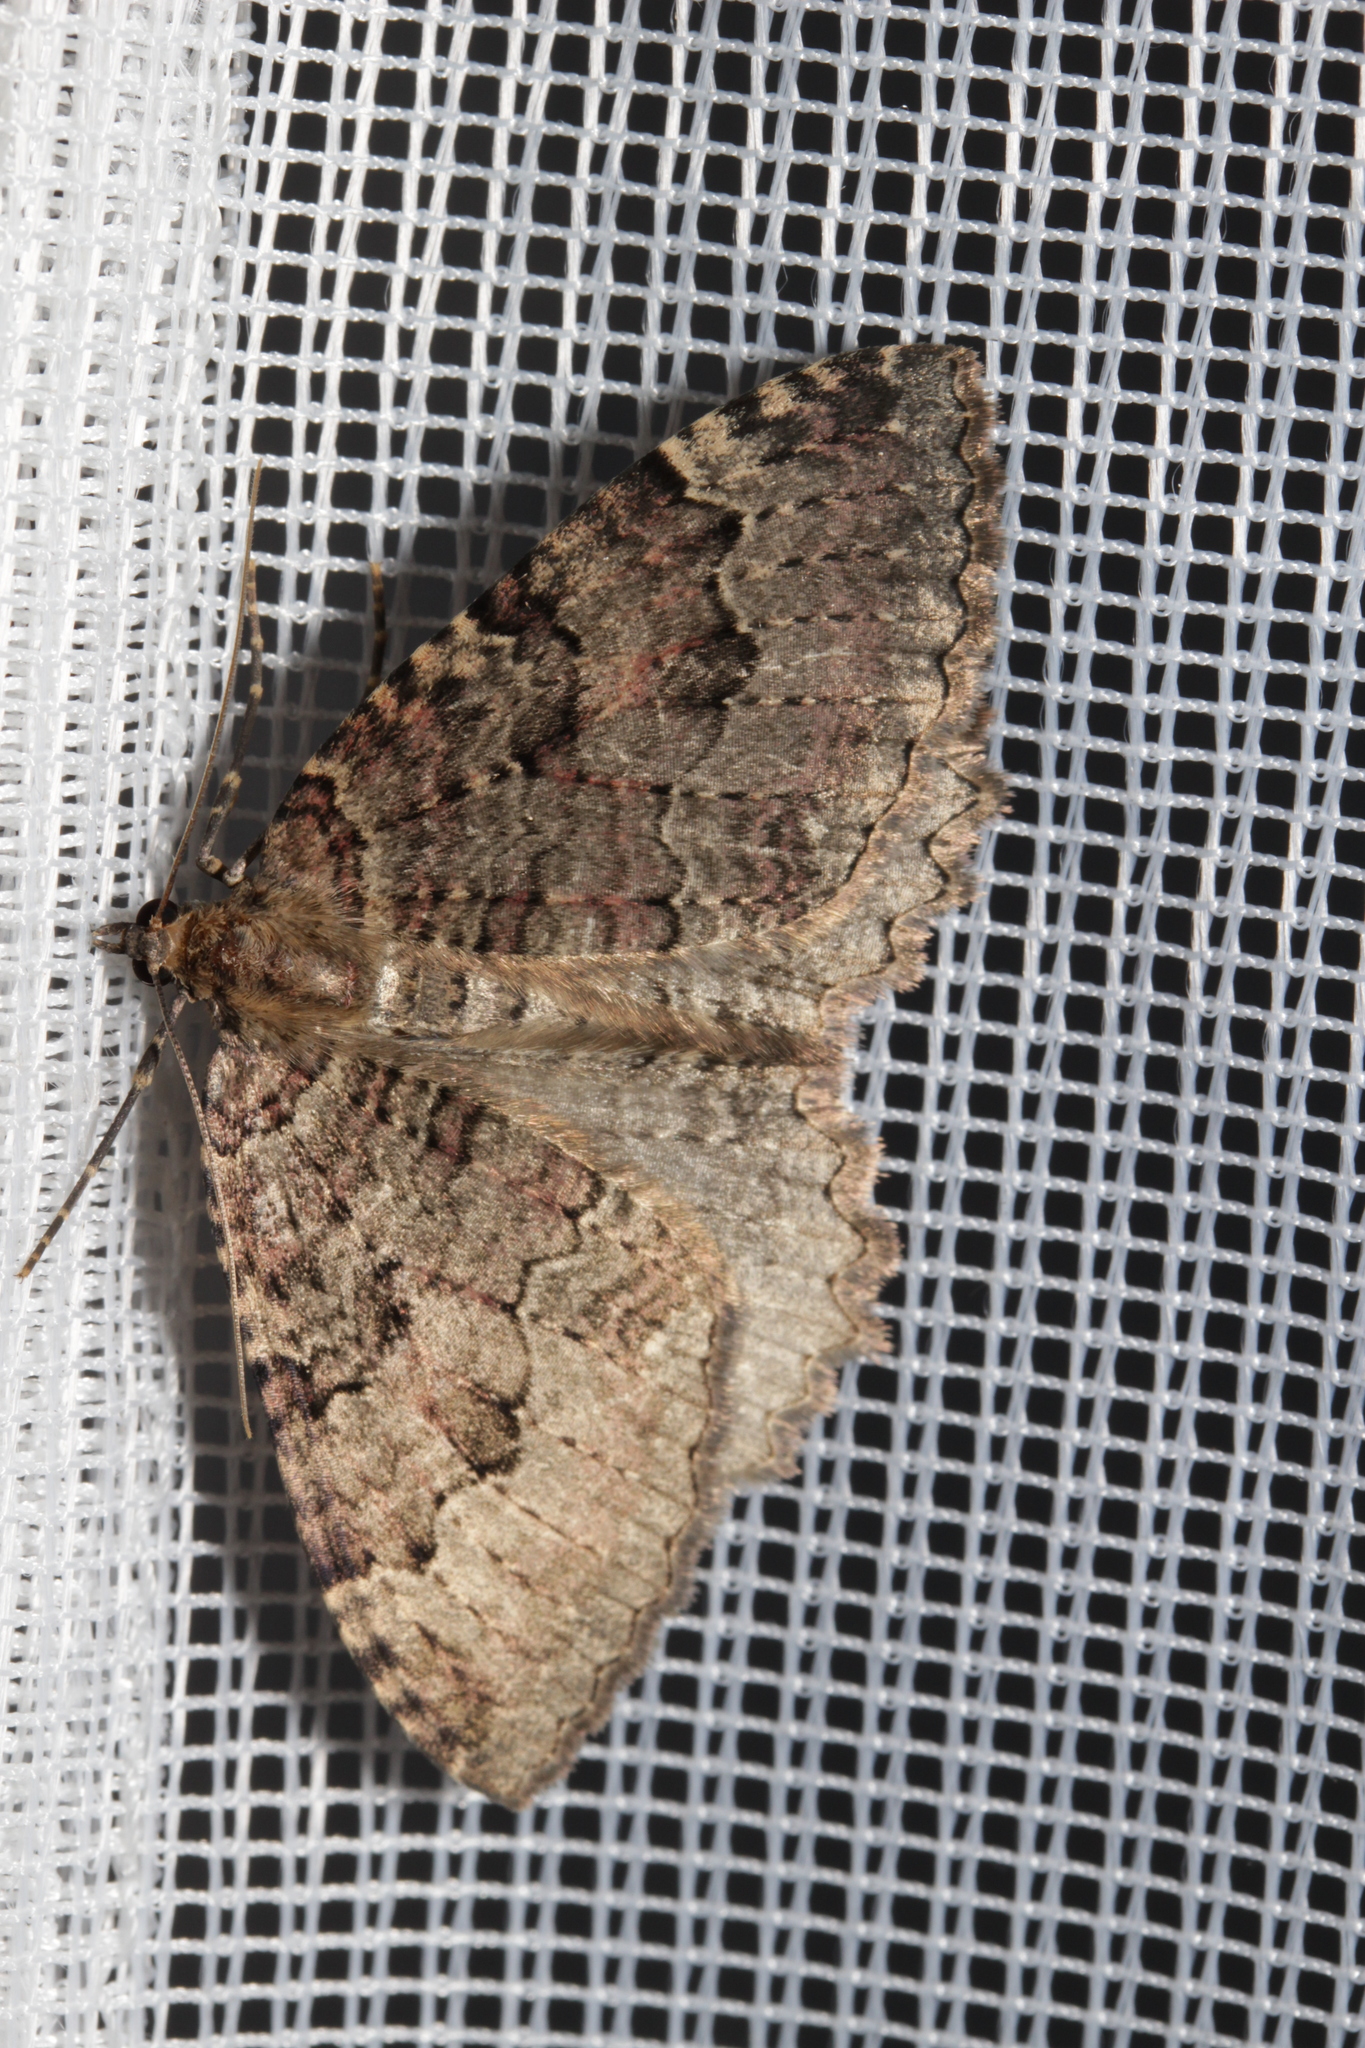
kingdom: Animalia
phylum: Arthropoda
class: Insecta
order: Lepidoptera
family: Geometridae
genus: Triphosa
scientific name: Triphosa dubitata
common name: Tissue
